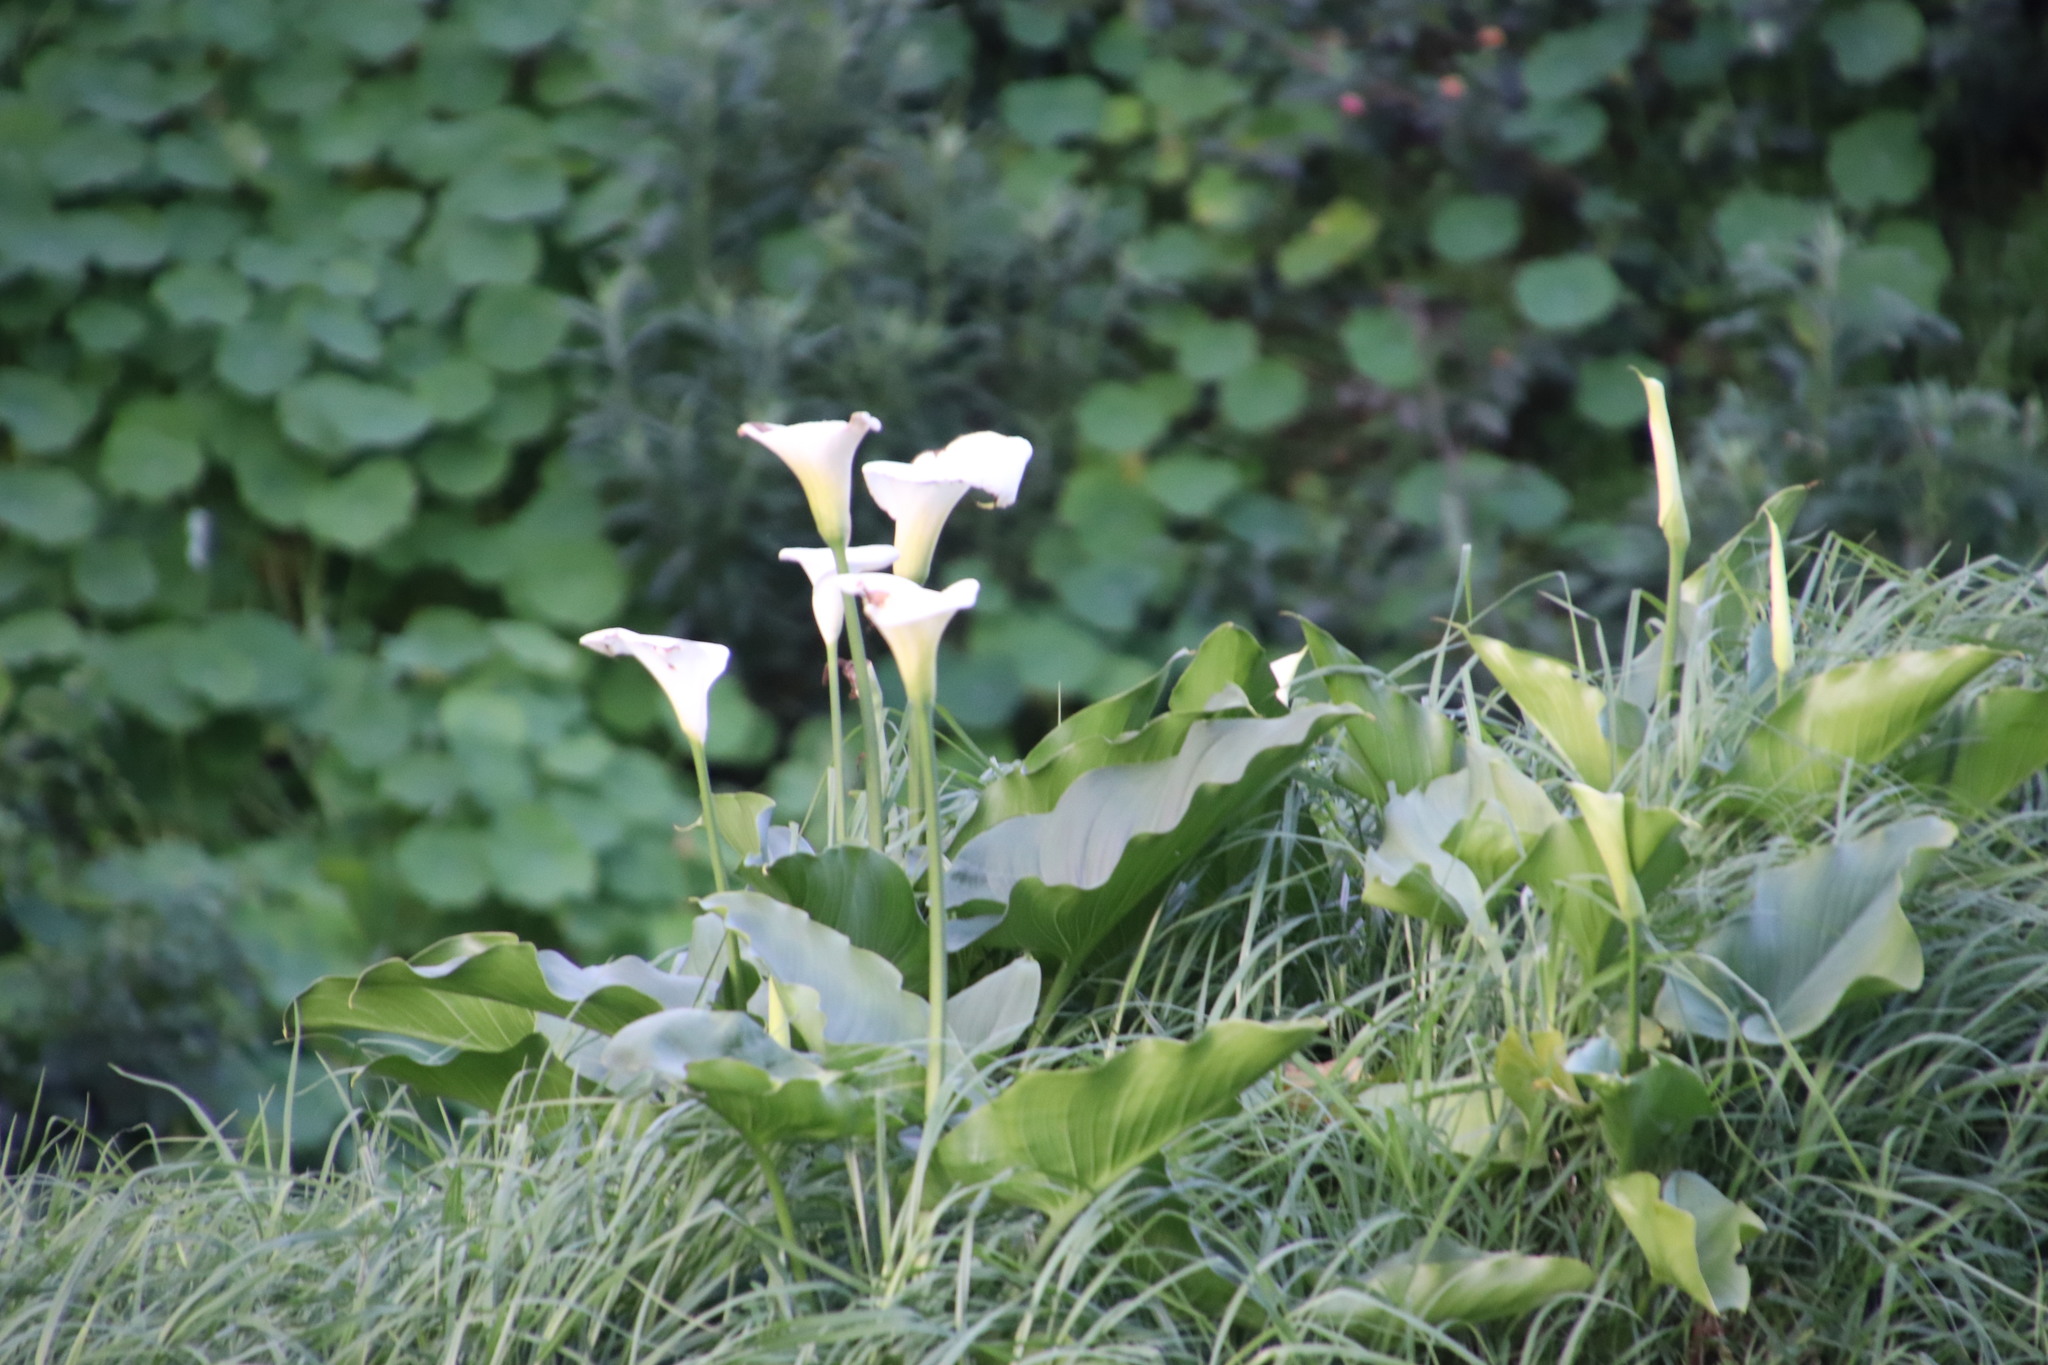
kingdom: Plantae
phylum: Tracheophyta
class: Liliopsida
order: Alismatales
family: Araceae
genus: Zantedeschia
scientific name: Zantedeschia aethiopica
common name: Altar-lily
